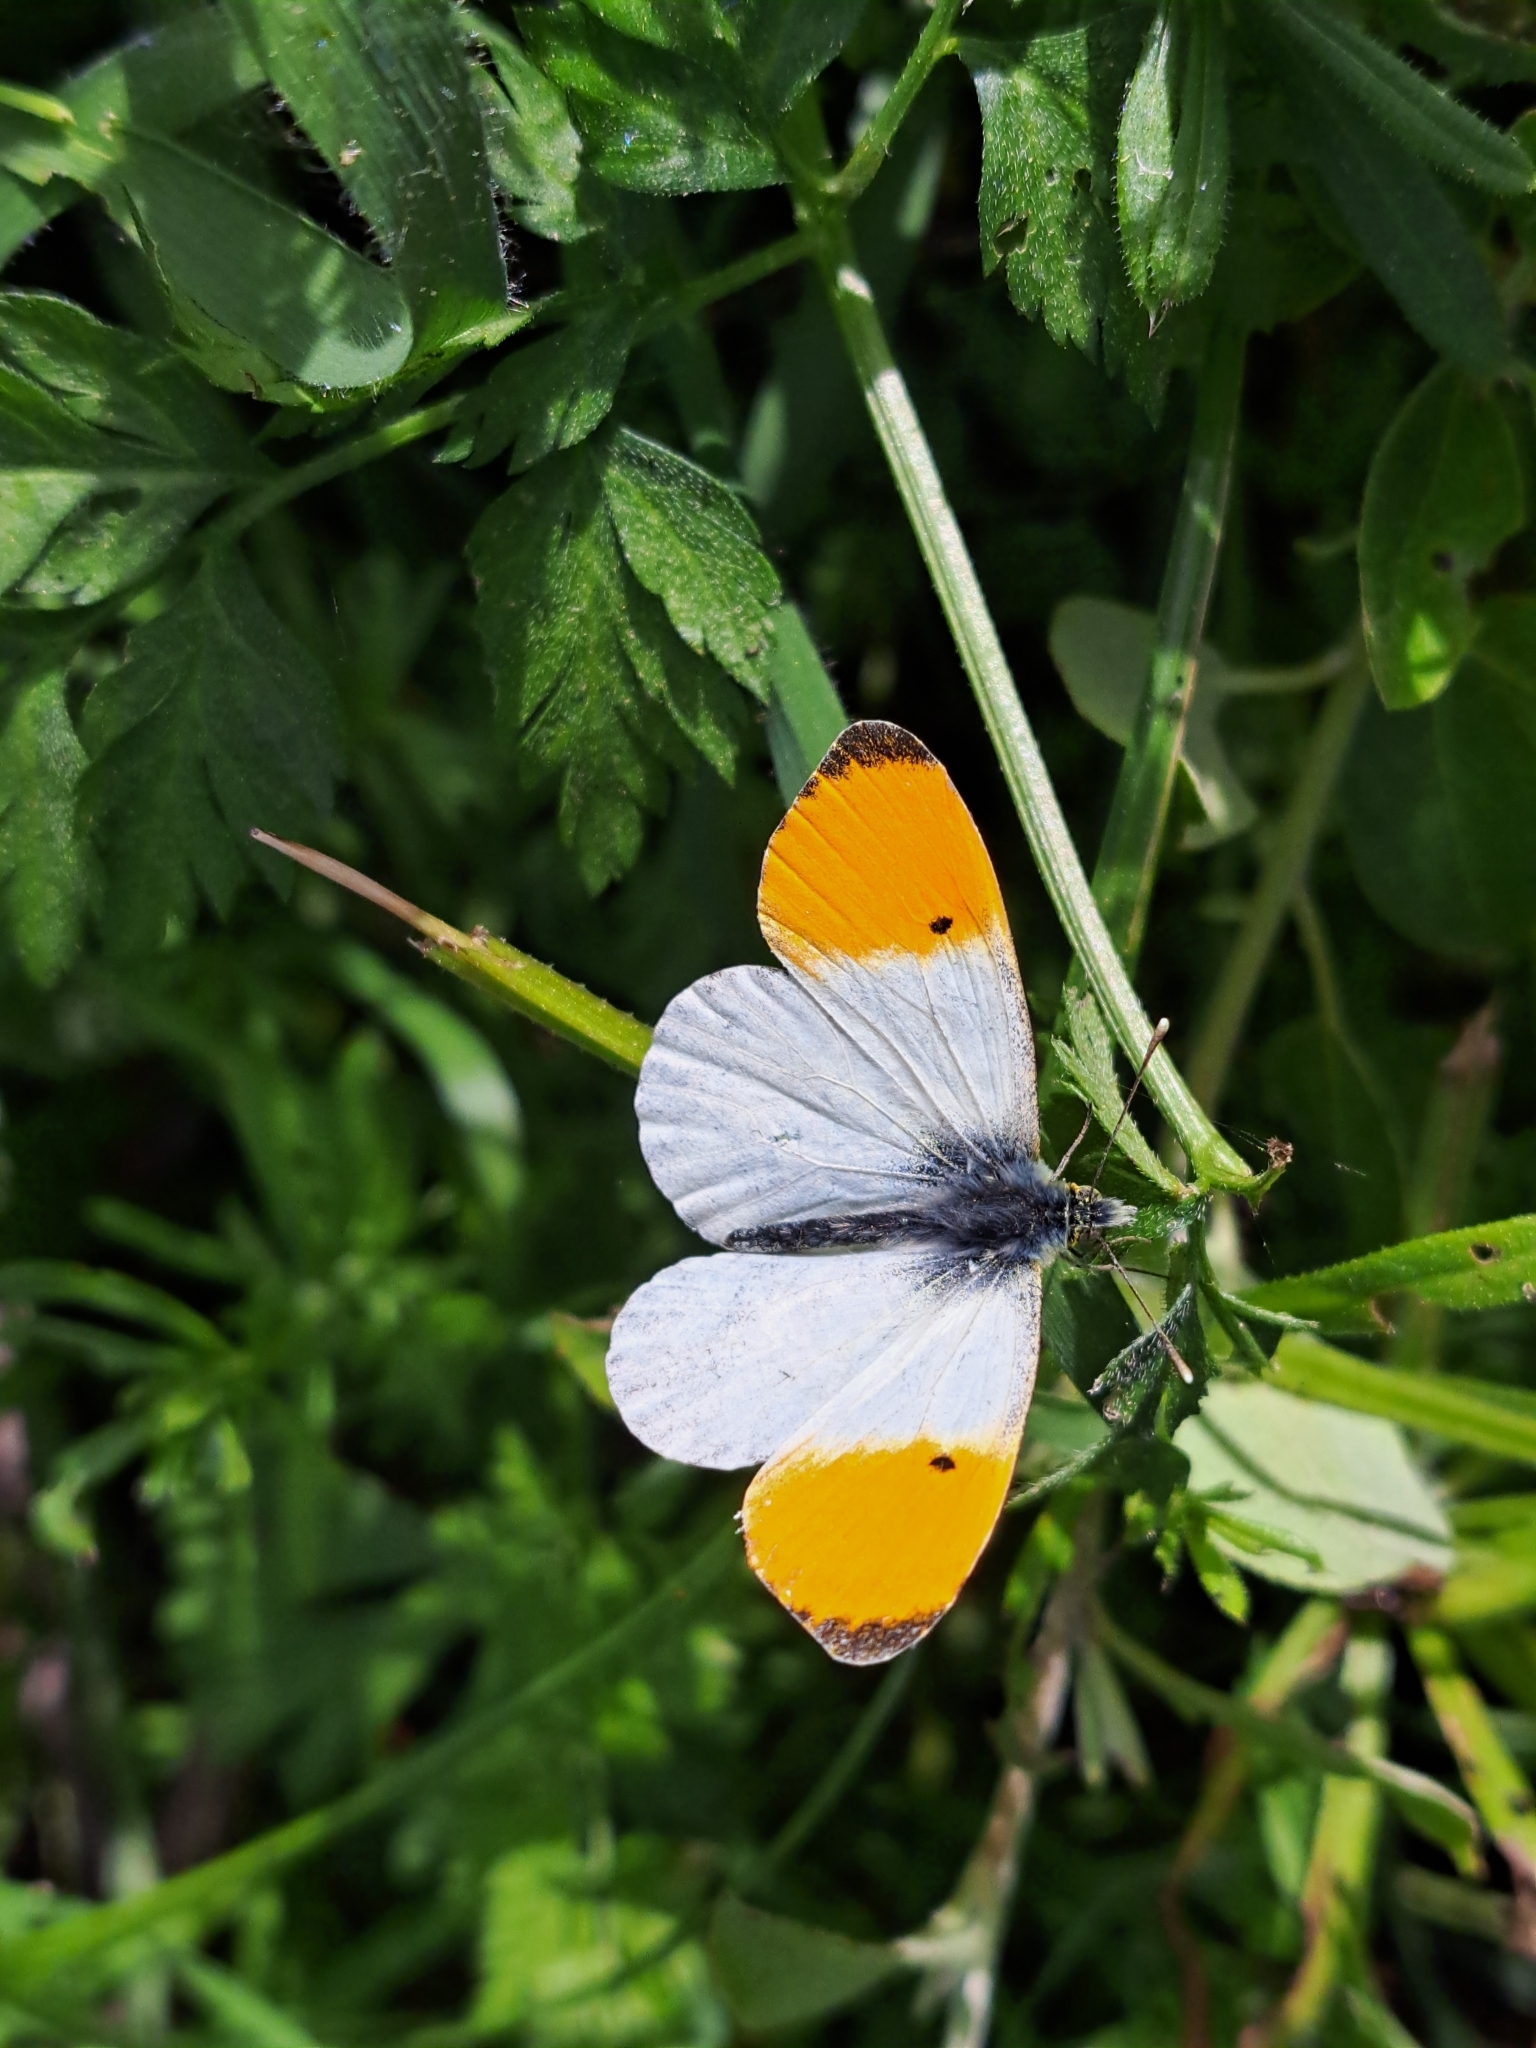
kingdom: Animalia
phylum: Arthropoda
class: Insecta
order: Lepidoptera
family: Pieridae
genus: Anthocharis
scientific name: Anthocharis cardamines
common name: Orange-tip
